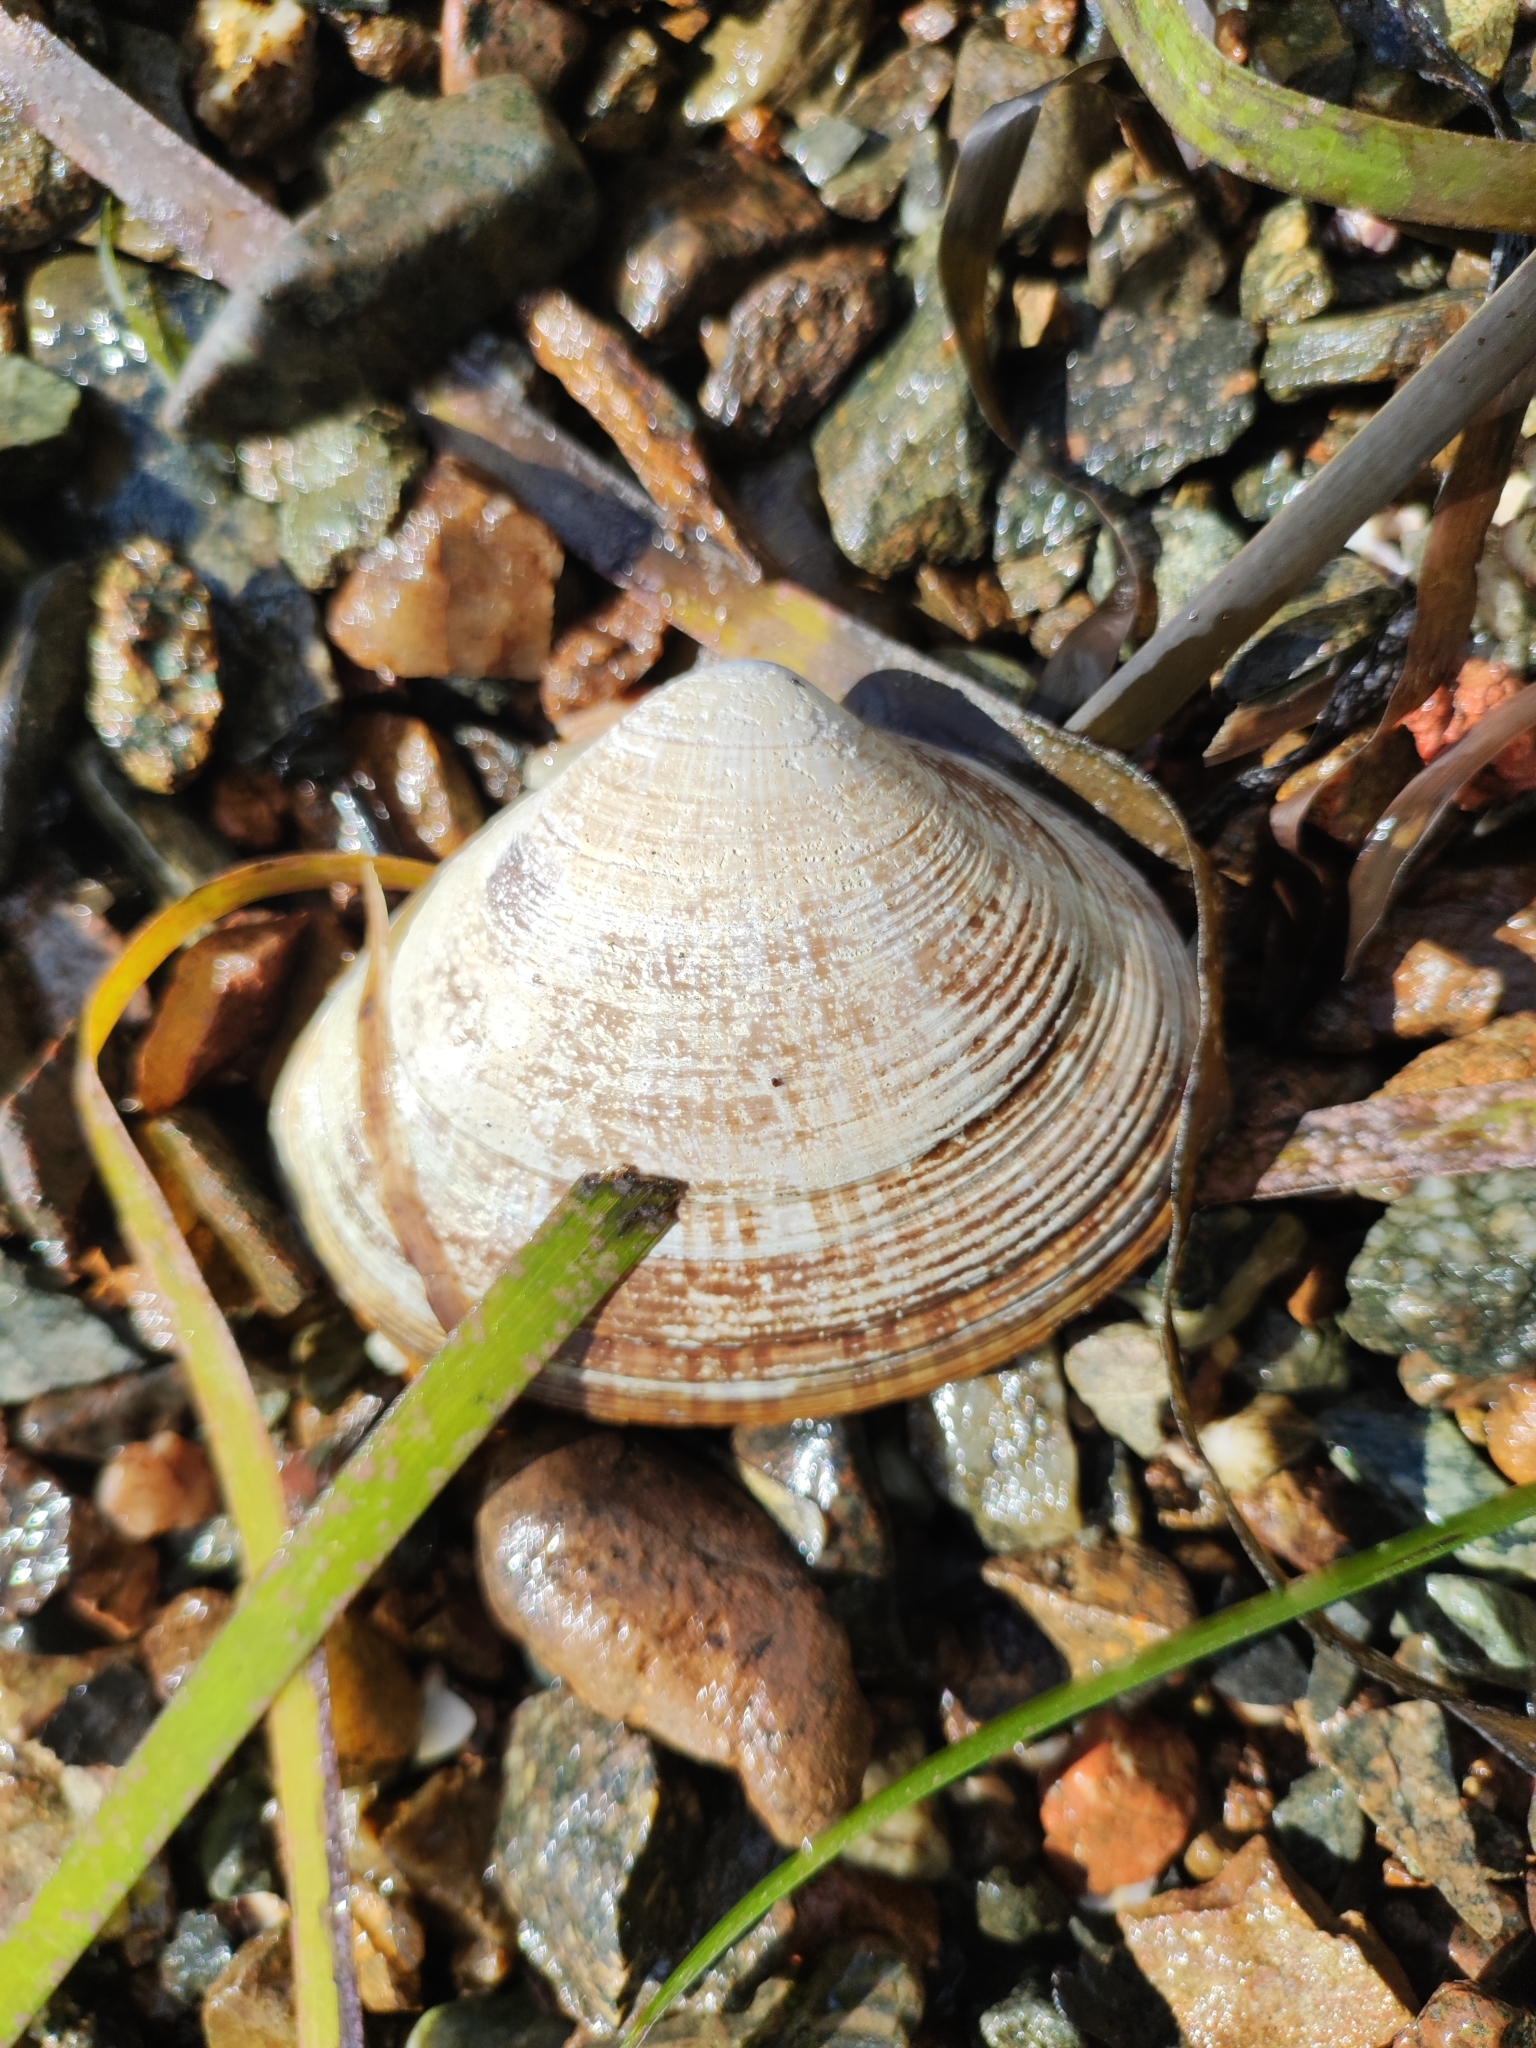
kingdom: Animalia
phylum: Mollusca
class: Bivalvia
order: Venerida
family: Mactridae
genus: Mactra
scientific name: Mactra chinensis
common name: Chinese surf clam
